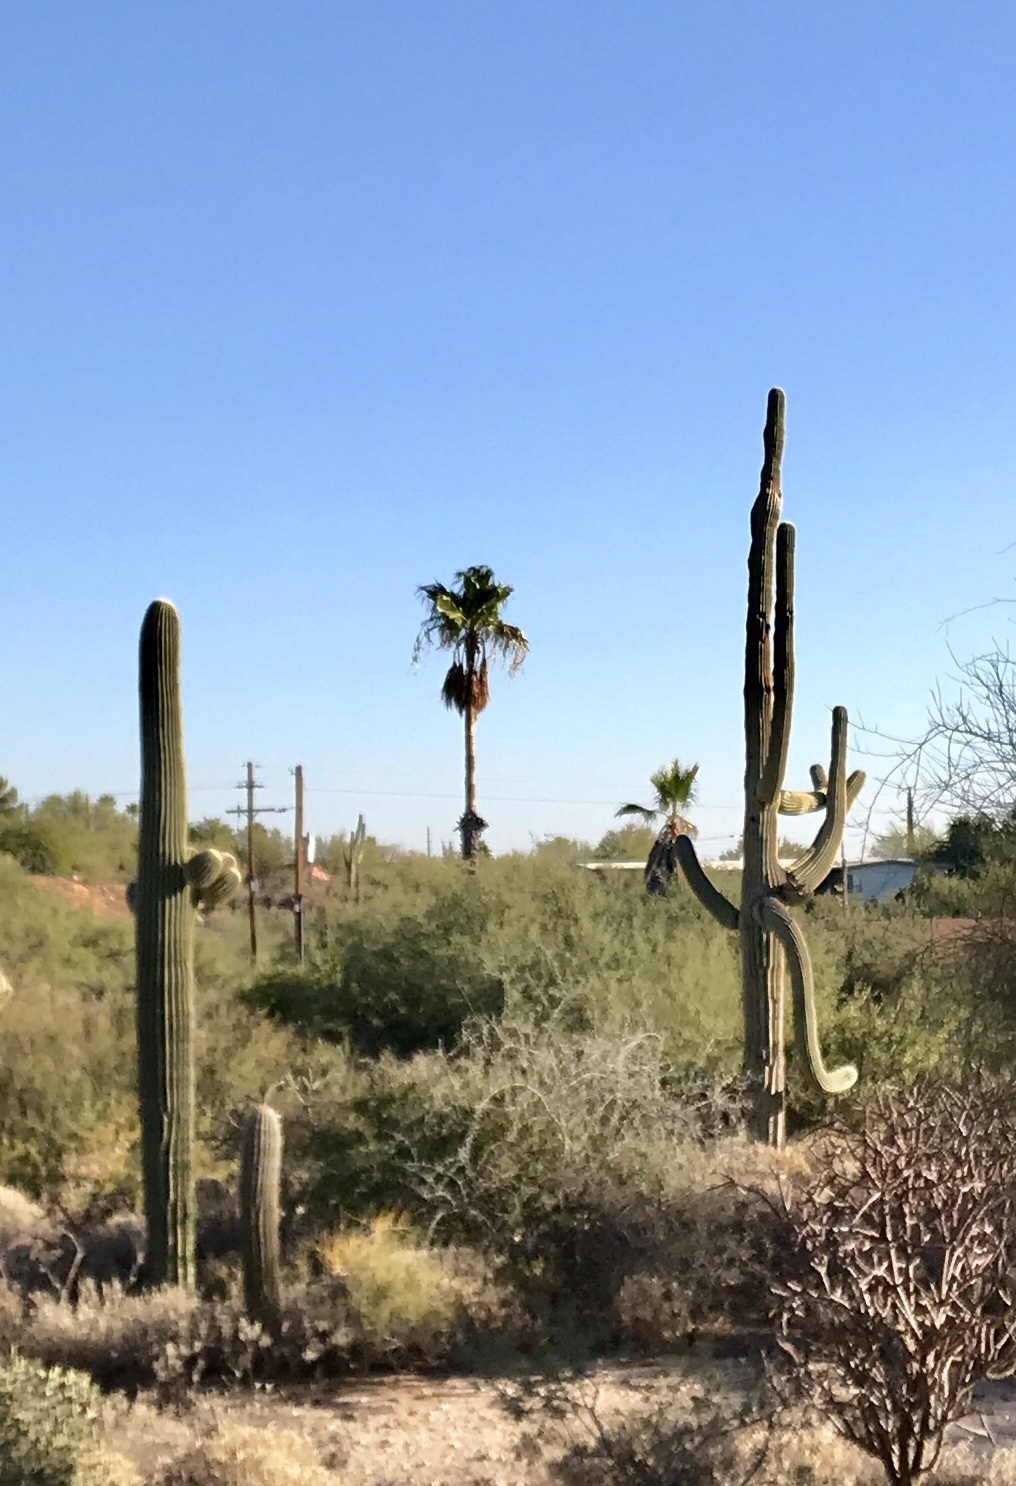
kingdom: Plantae
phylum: Tracheophyta
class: Magnoliopsida
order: Caryophyllales
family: Cactaceae
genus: Carnegiea
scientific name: Carnegiea gigantea
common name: Saguaro
